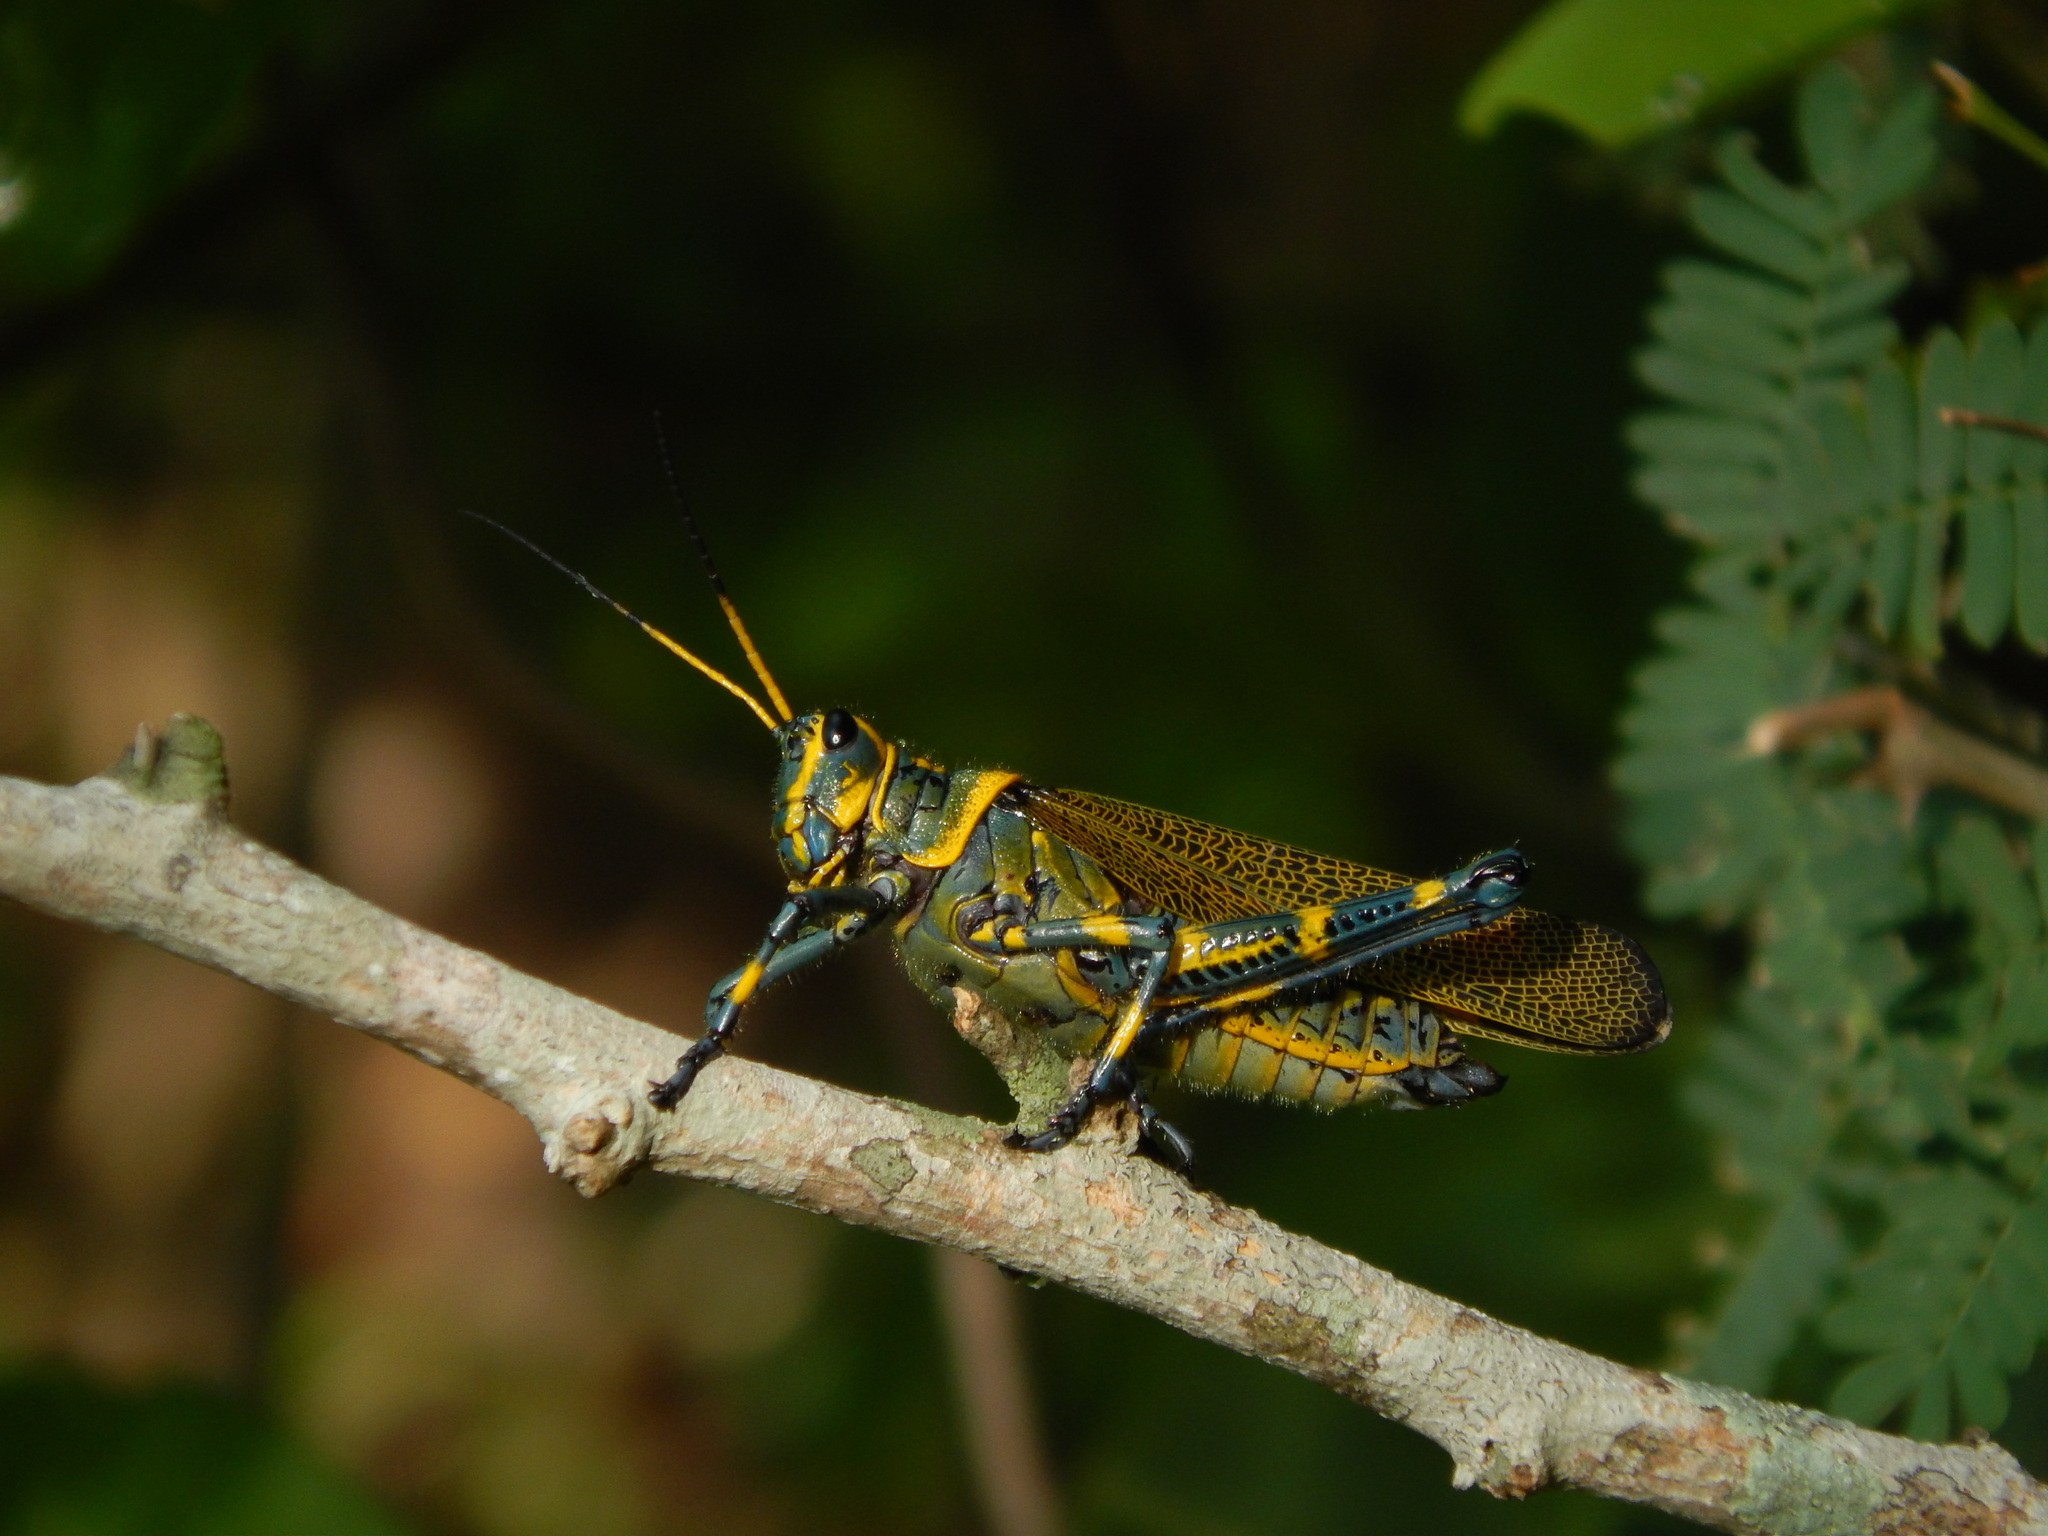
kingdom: Animalia
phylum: Arthropoda
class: Insecta
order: Orthoptera
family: Romaleidae
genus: Chromacris
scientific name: Chromacris colorata
